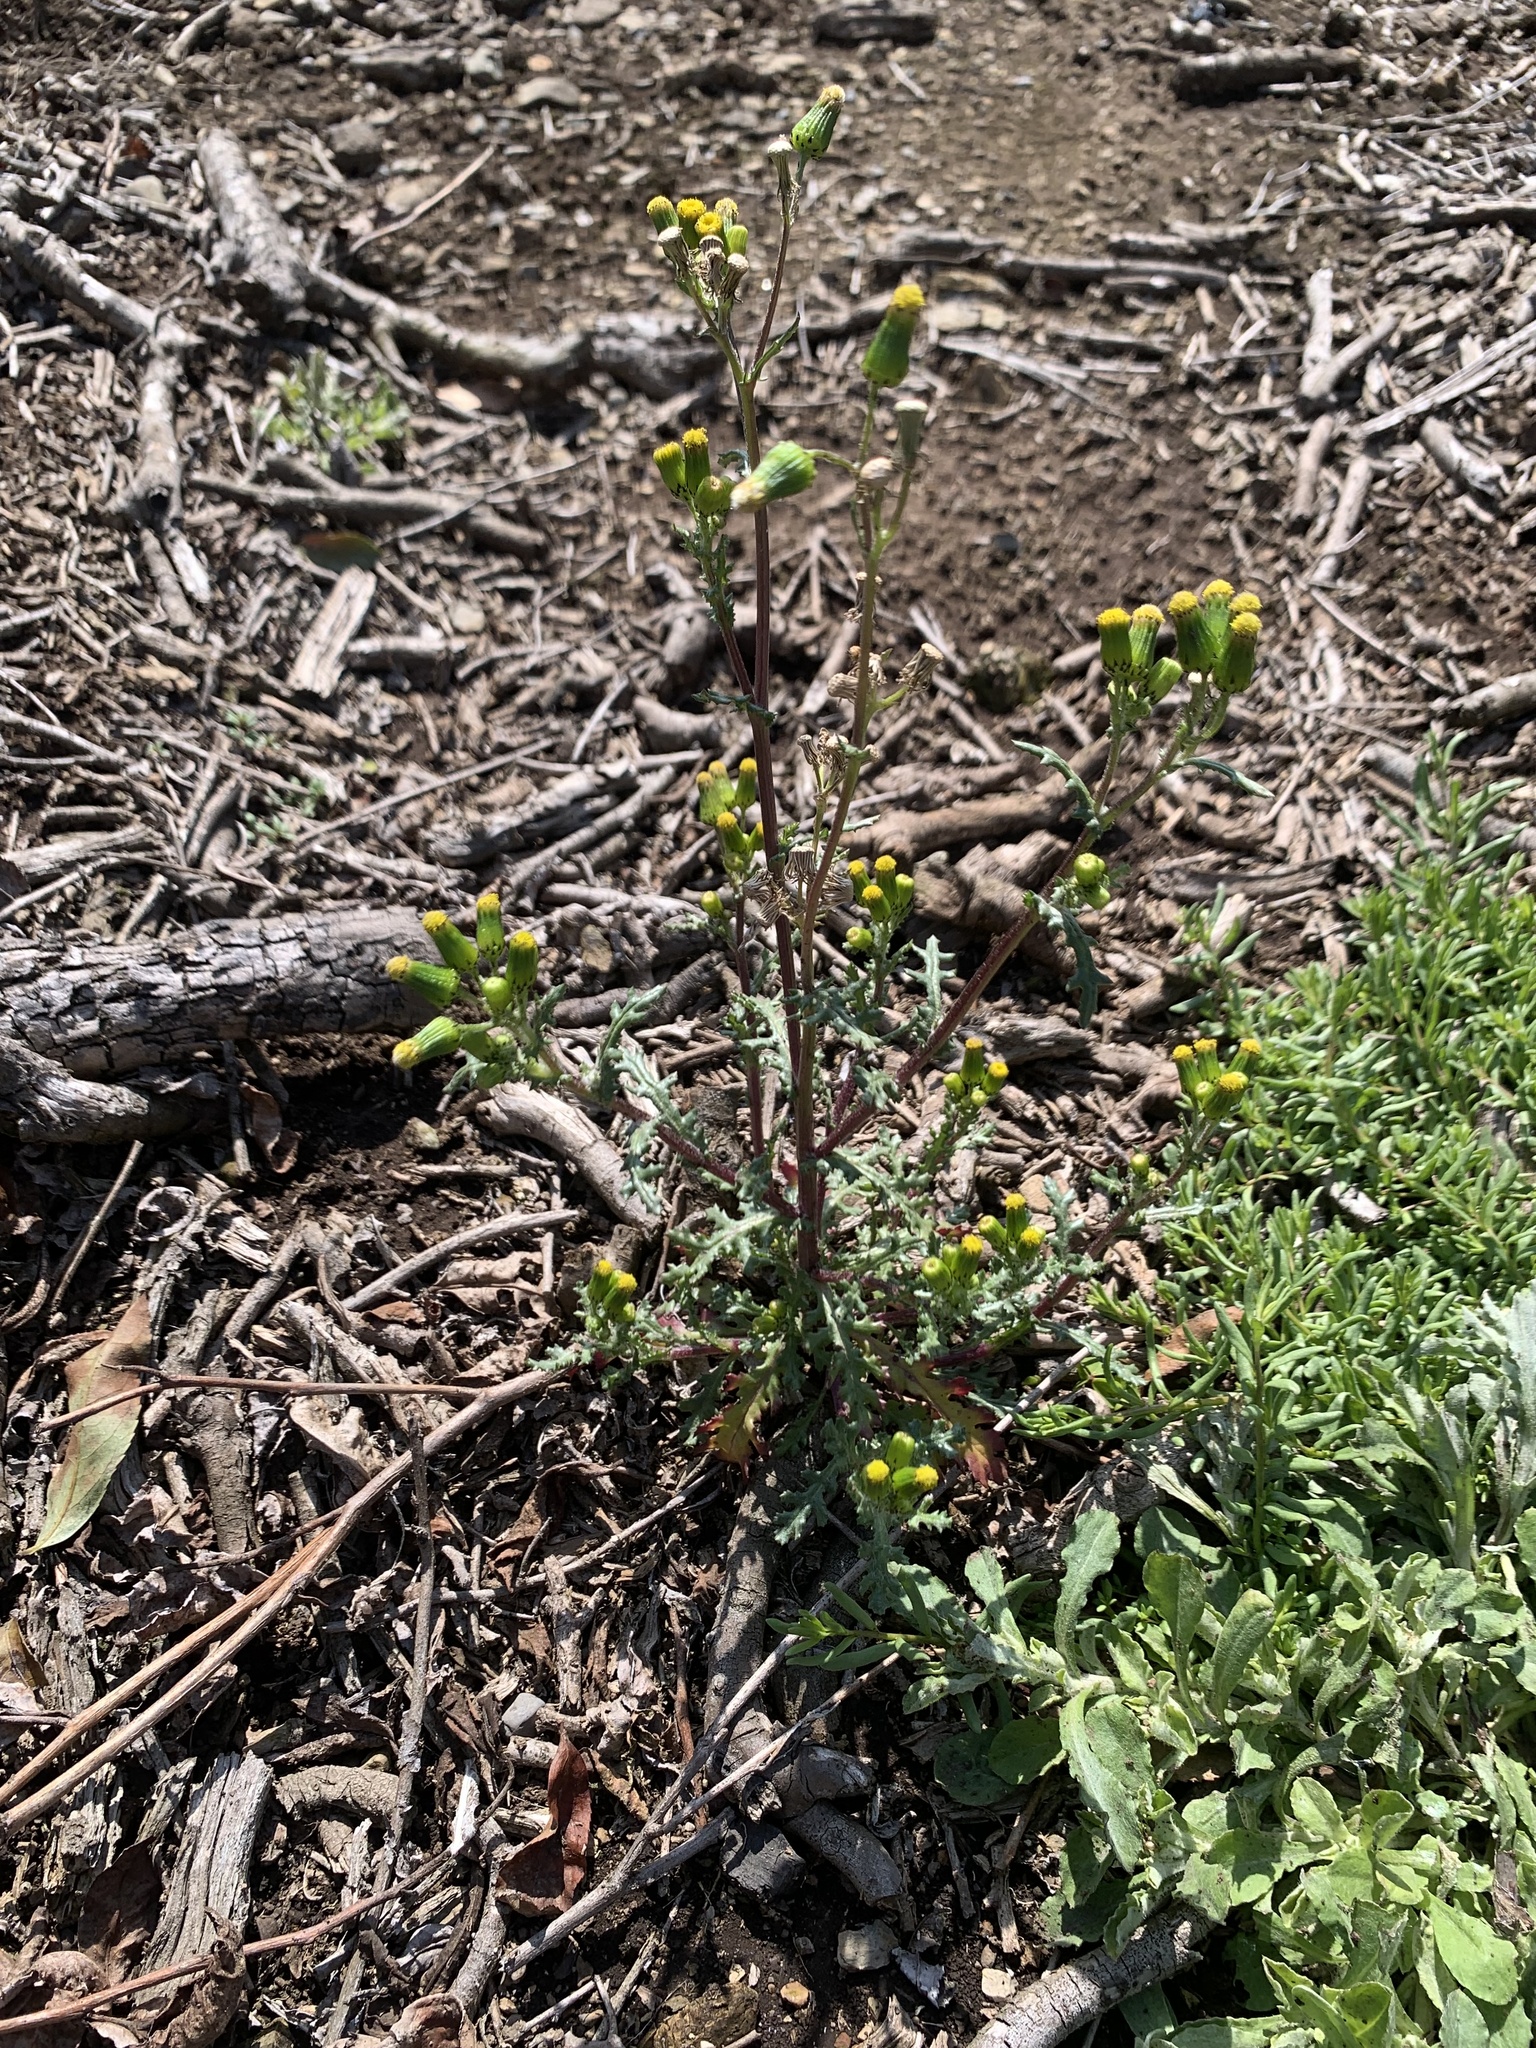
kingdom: Plantae
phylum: Tracheophyta
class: Magnoliopsida
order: Asterales
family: Asteraceae
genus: Senecio
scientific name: Senecio vulgaris
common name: Old-man-in-the-spring
